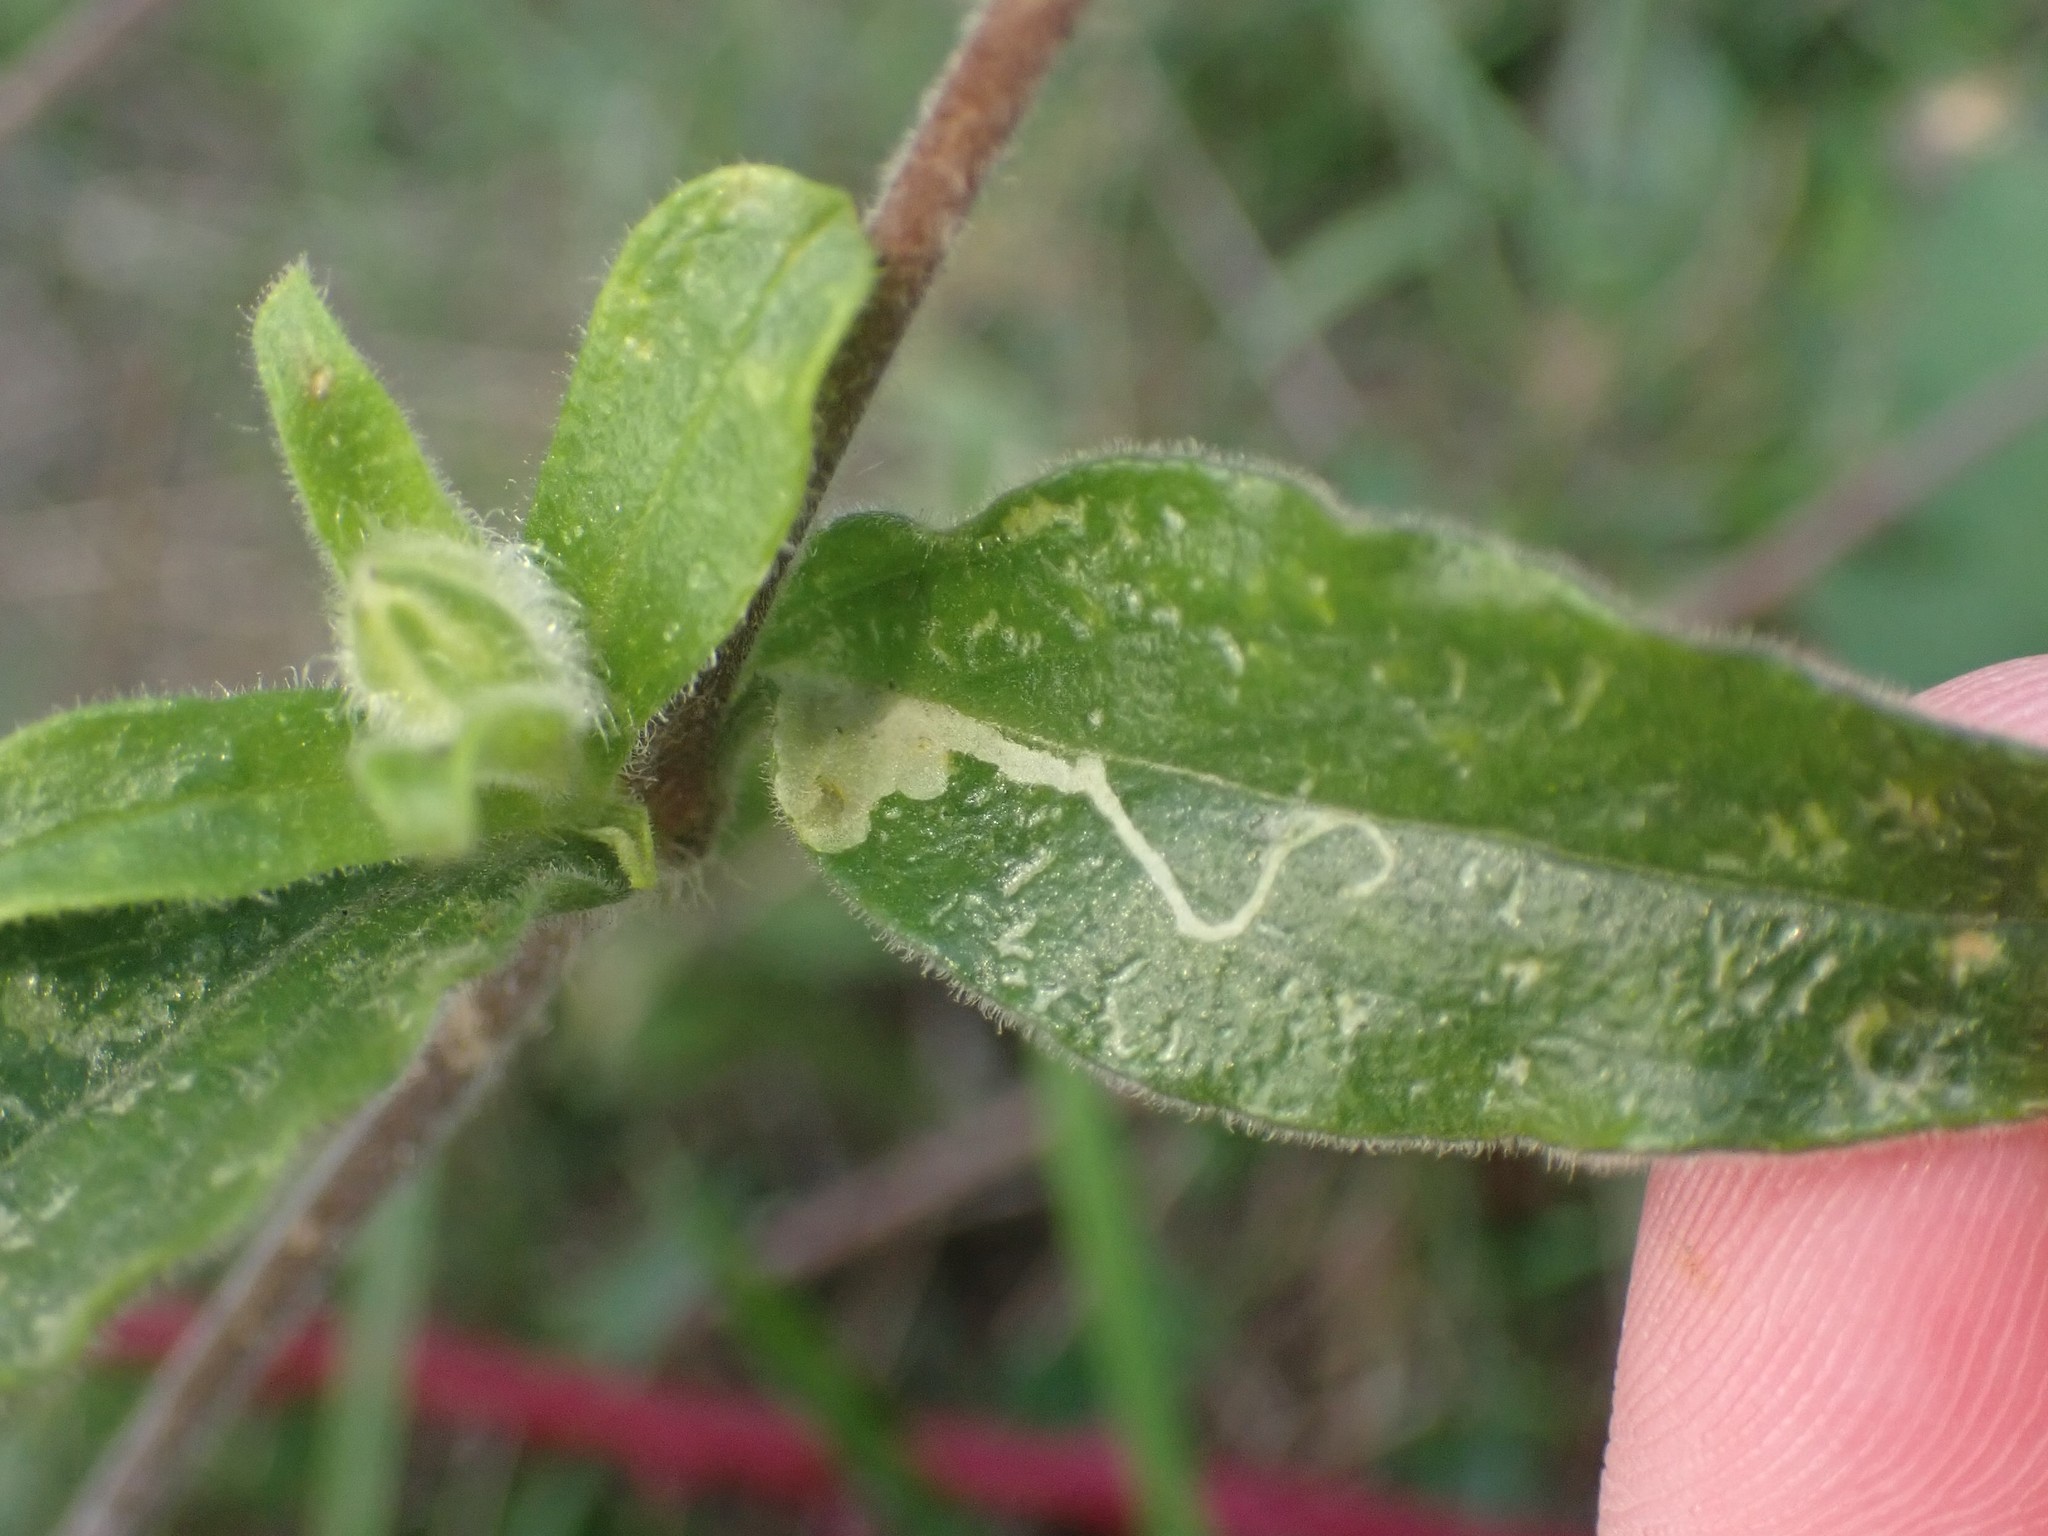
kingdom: Animalia
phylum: Arthropoda
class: Insecta
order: Diptera
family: Agromyzidae
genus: Amauromyza
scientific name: Amauromyza flavifrons
